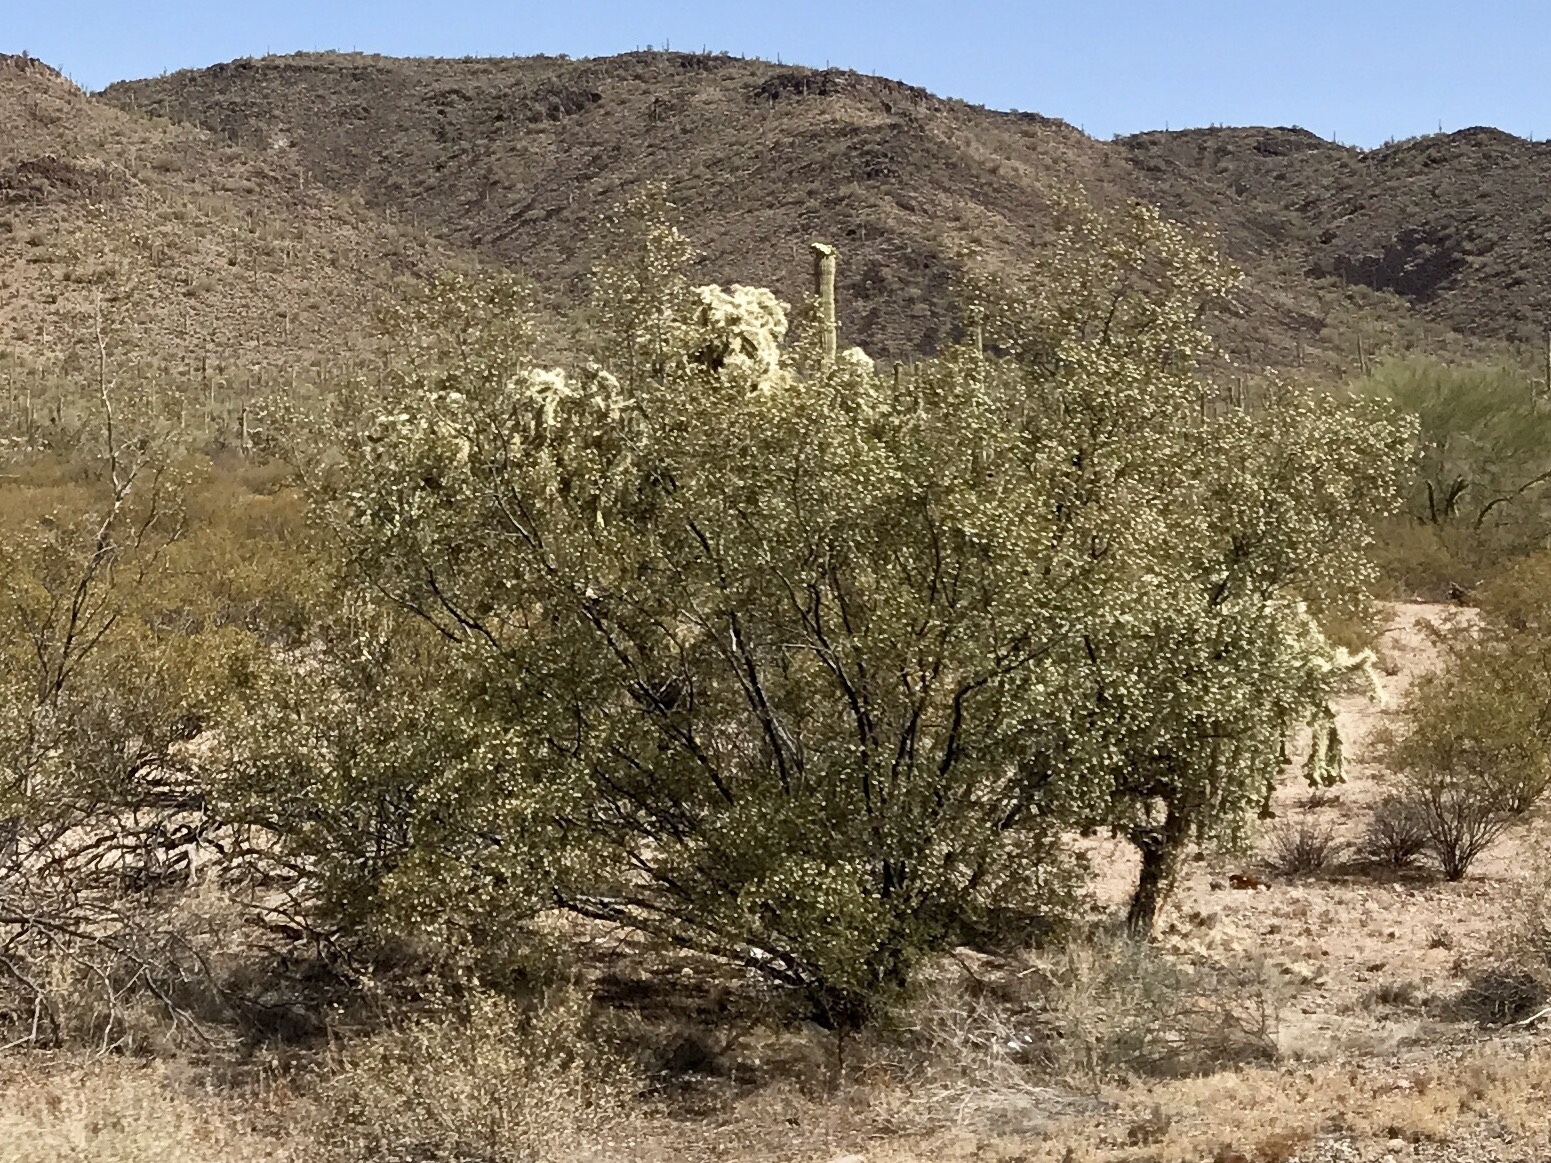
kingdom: Plantae
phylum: Tracheophyta
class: Magnoliopsida
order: Zygophyllales
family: Zygophyllaceae
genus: Larrea
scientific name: Larrea tridentata
